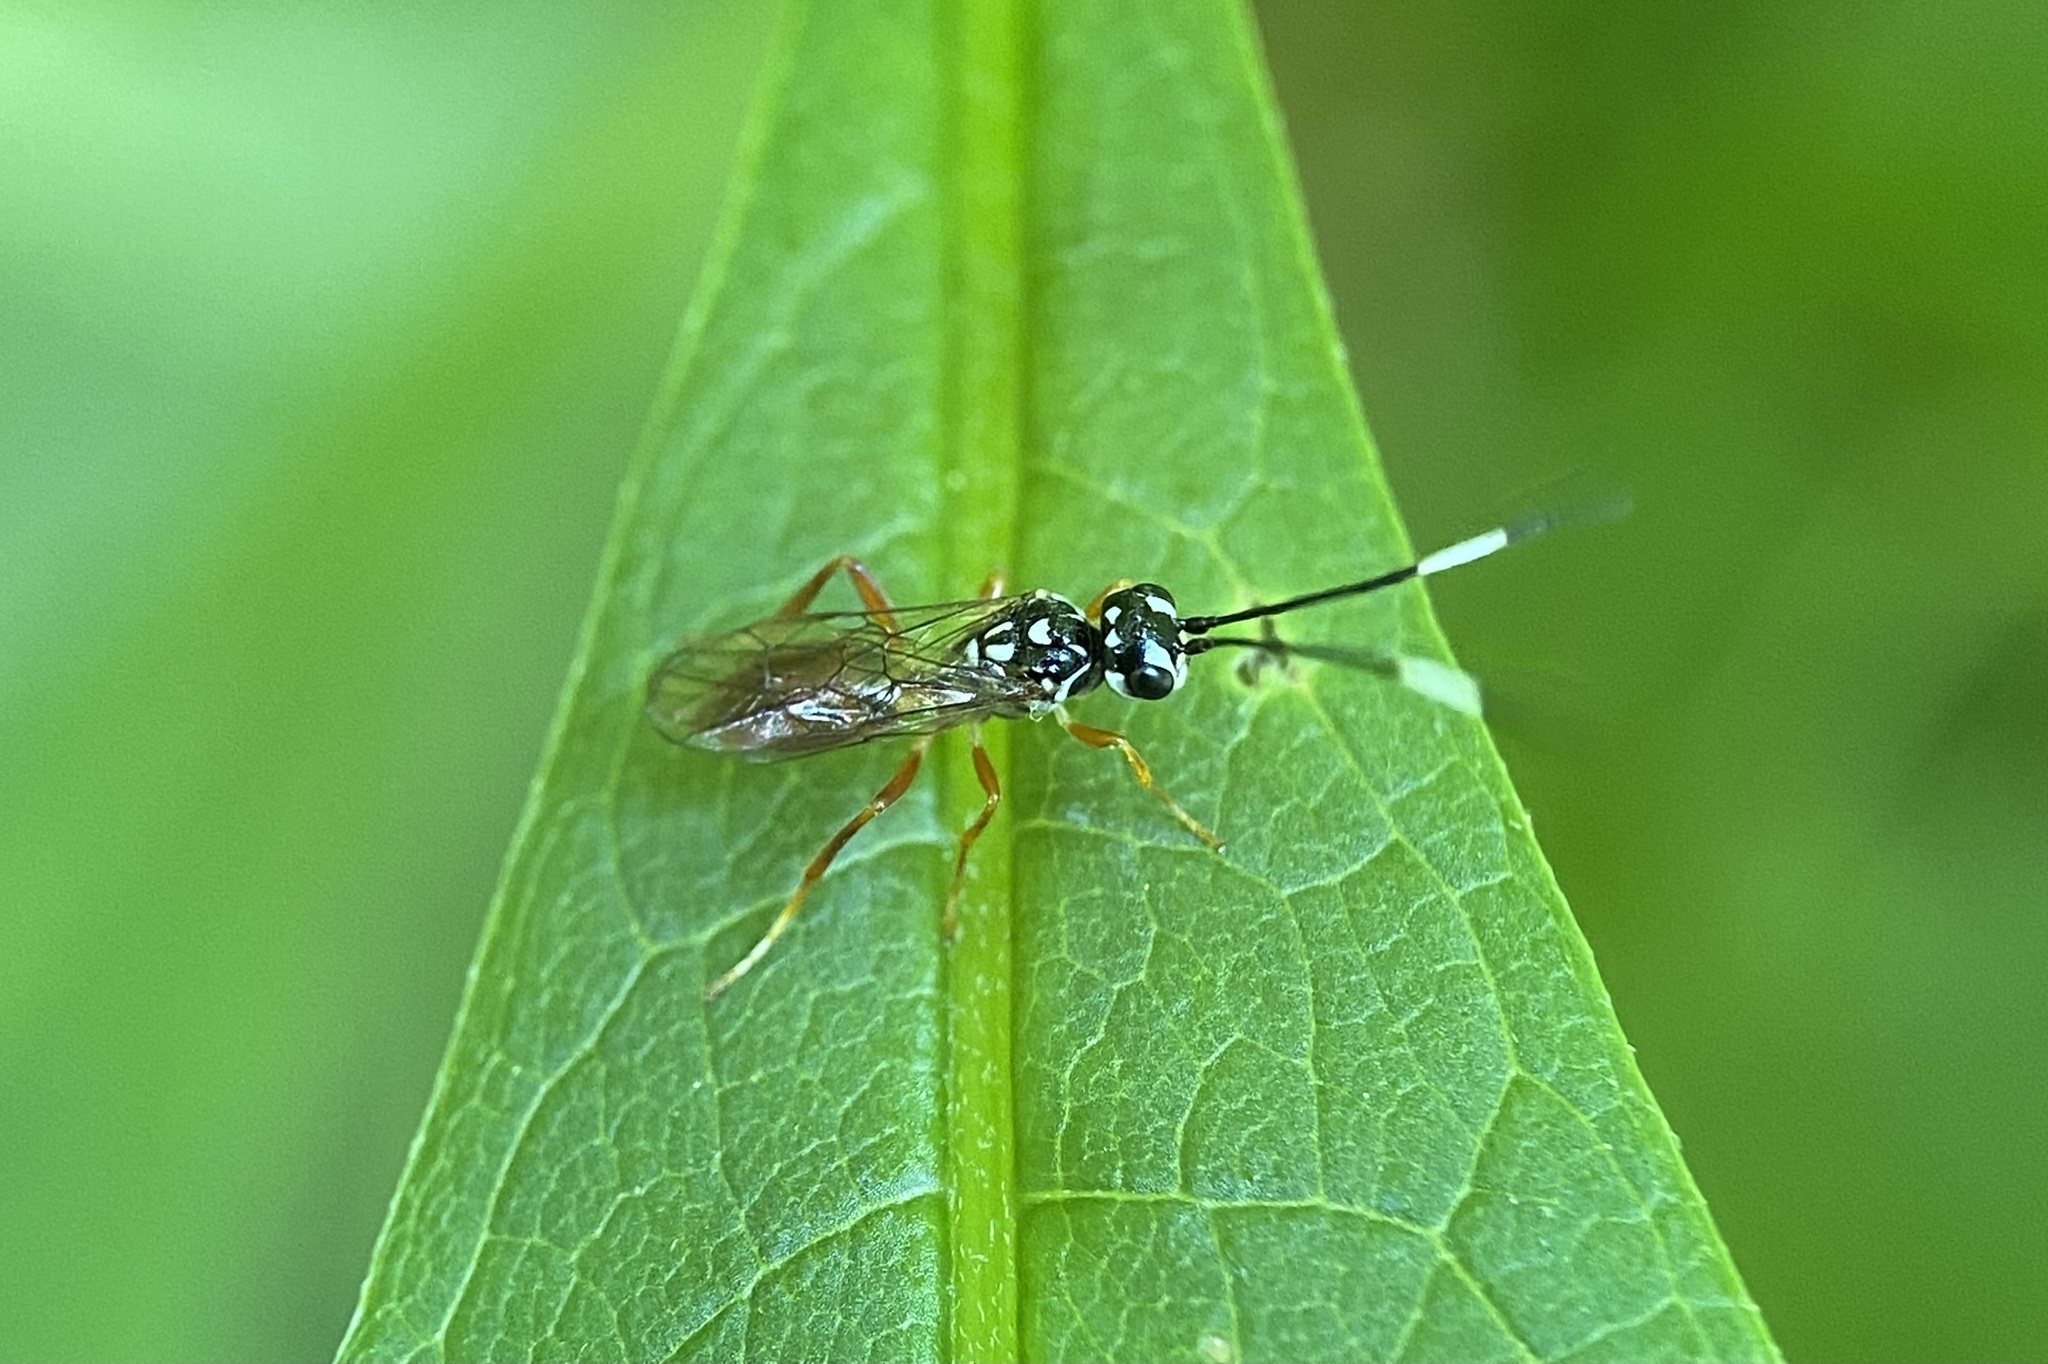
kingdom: Animalia
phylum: Arthropoda
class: Insecta
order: Hymenoptera
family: Trigonalidae
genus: Orthogonalys
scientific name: Orthogonalys pulchella
